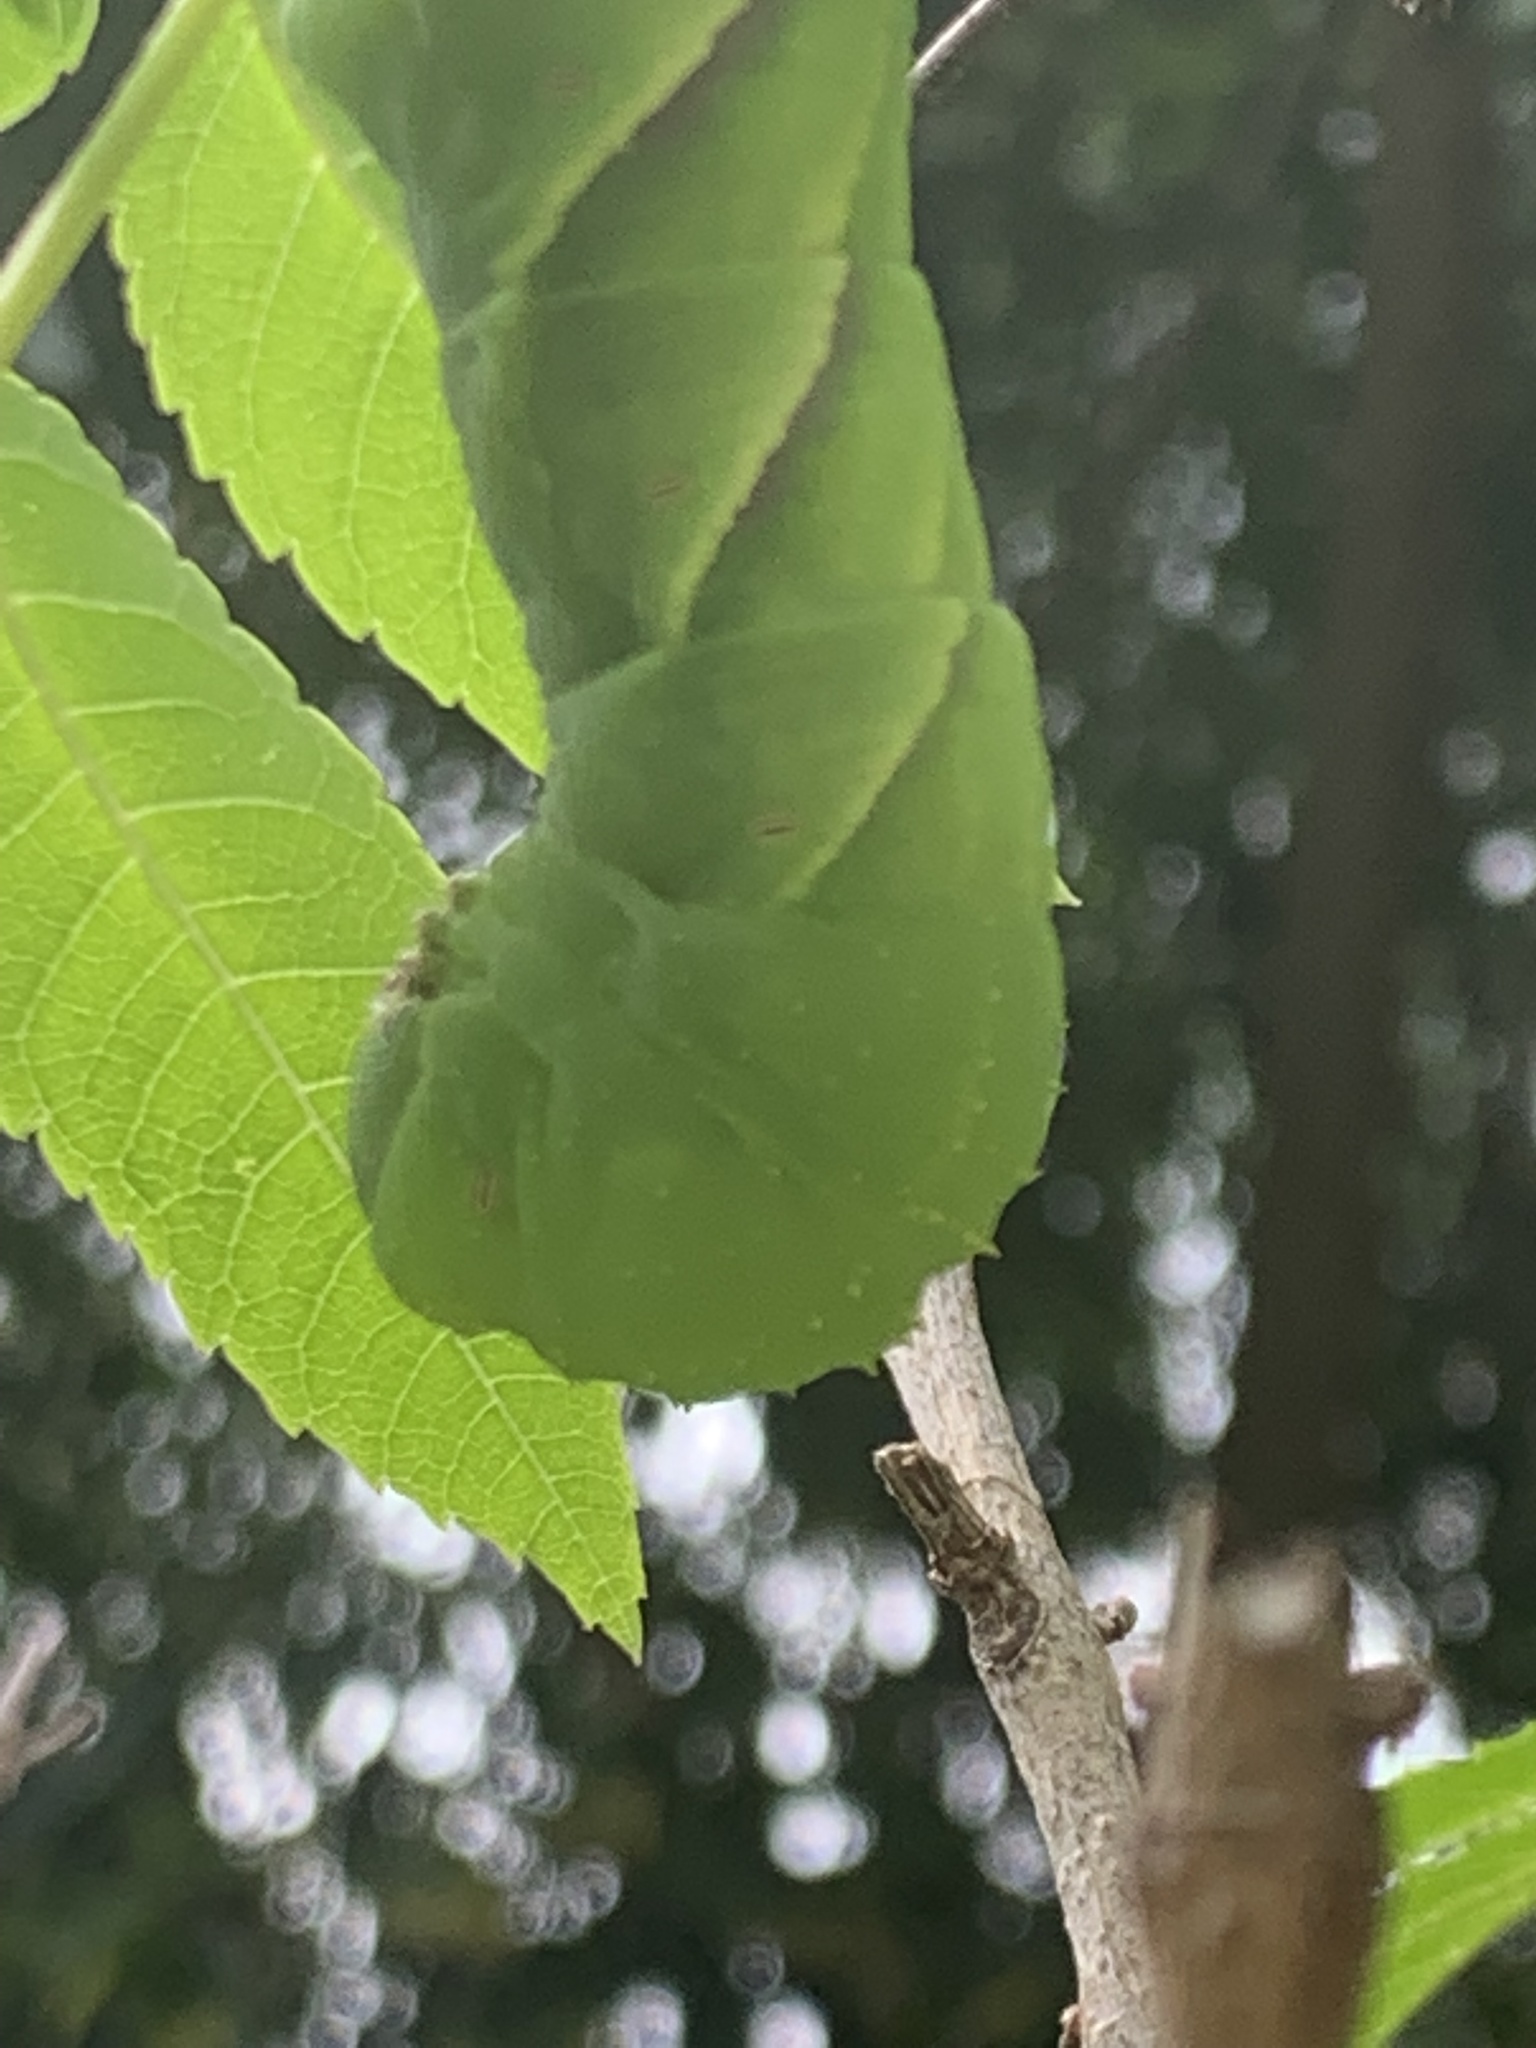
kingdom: Animalia
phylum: Arthropoda
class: Insecta
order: Lepidoptera
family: Sphingidae
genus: Manduca
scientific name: Manduca rustica
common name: Rustic sphinx
